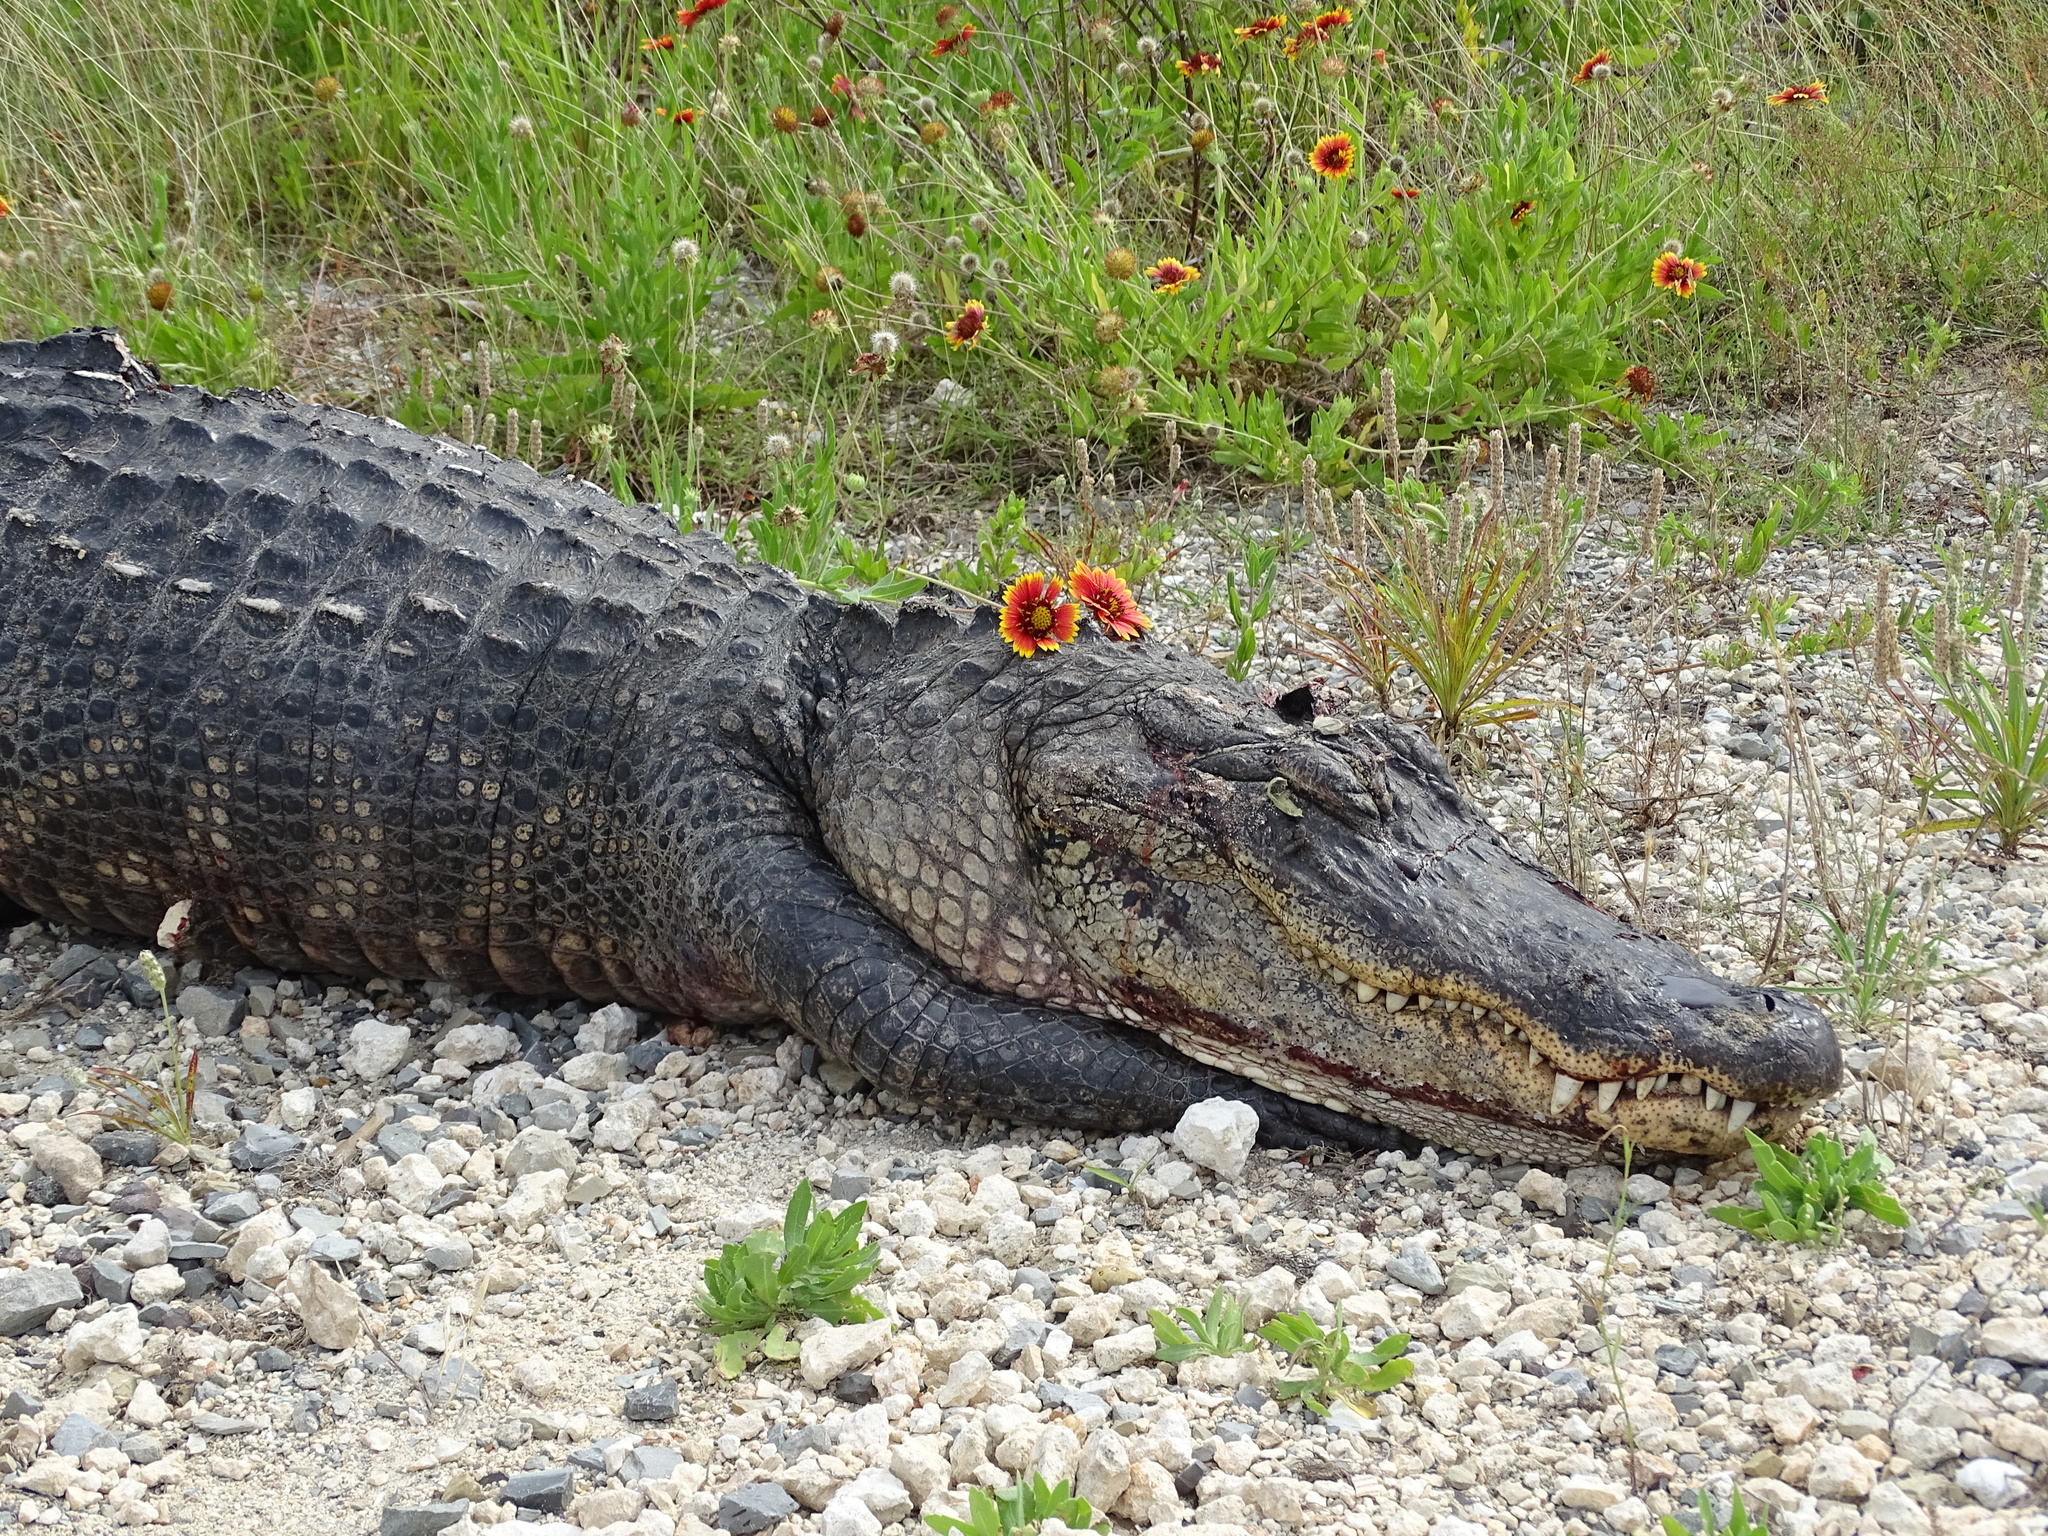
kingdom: Animalia
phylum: Chordata
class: Crocodylia
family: Alligatoridae
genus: Alligator
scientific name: Alligator mississippiensis
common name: American alligator
